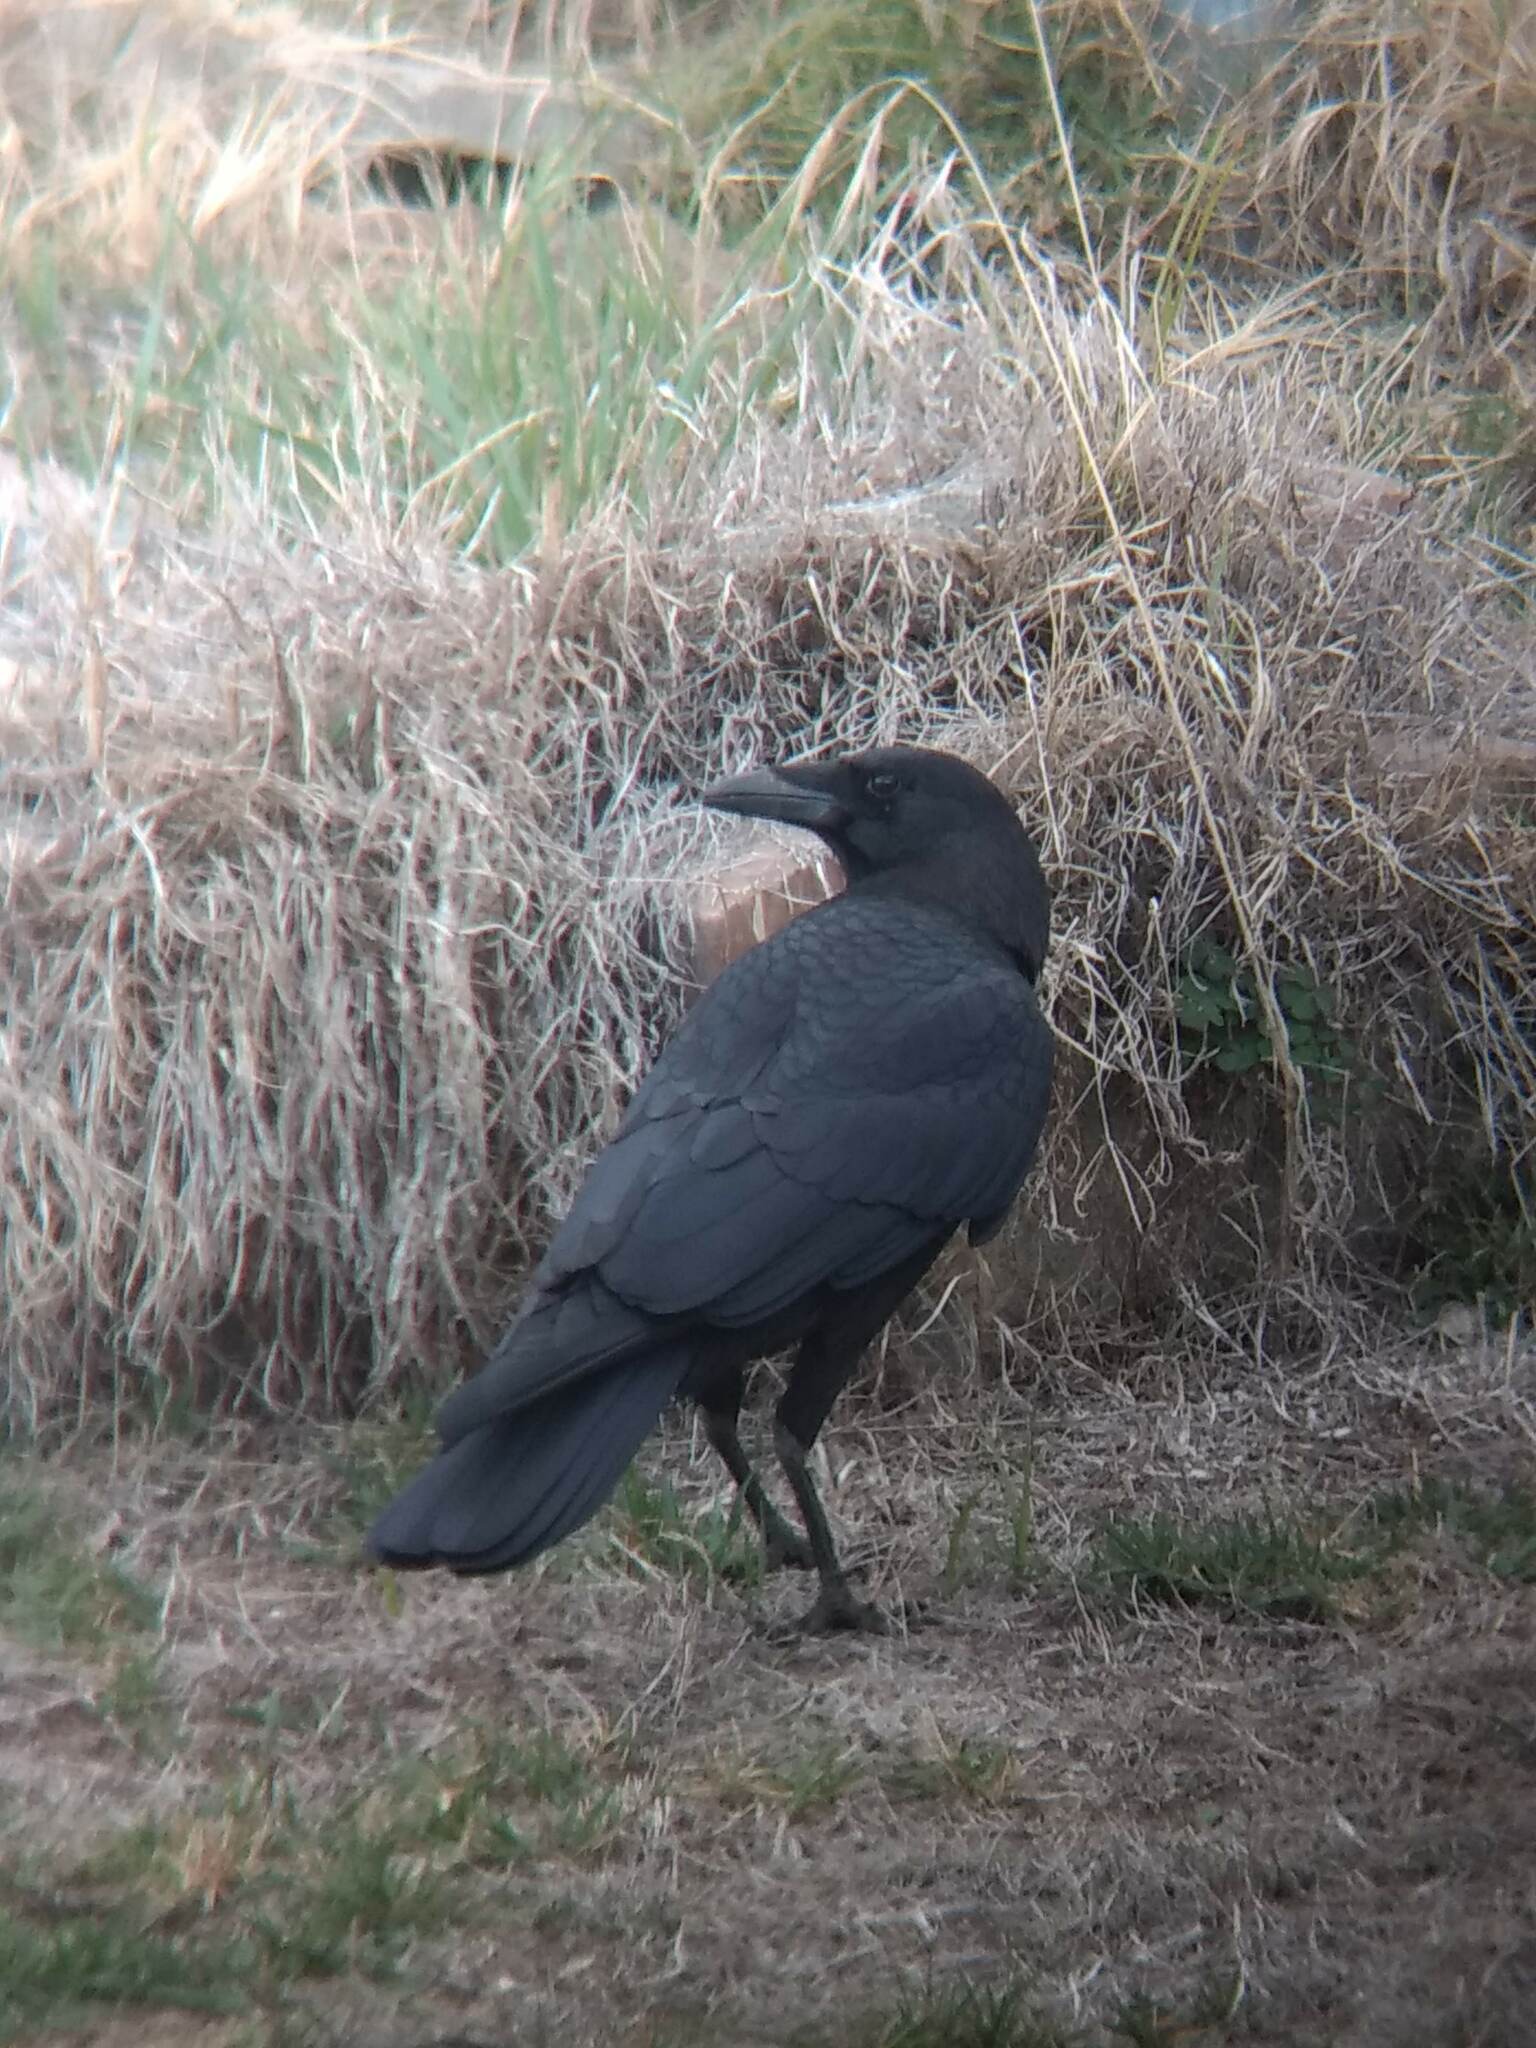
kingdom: Animalia
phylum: Chordata
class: Aves
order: Passeriformes
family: Corvidae
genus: Corvus
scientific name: Corvus brachyrhynchos
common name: American crow
